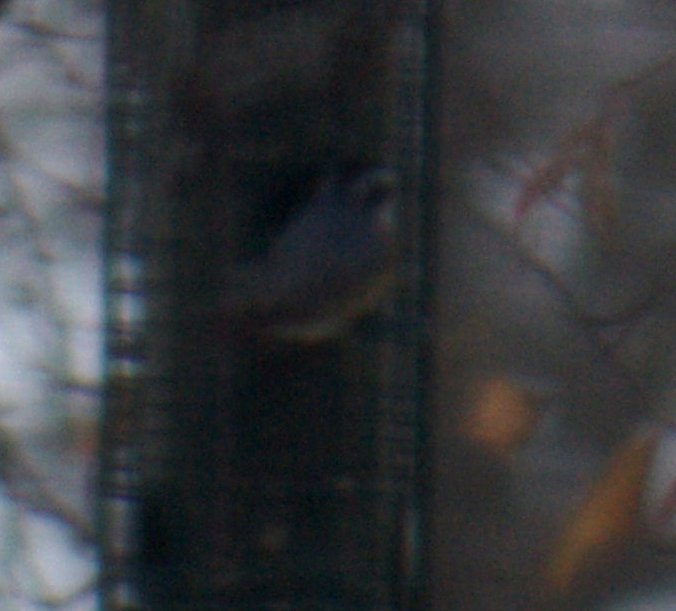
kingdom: Animalia
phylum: Chordata
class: Aves
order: Passeriformes
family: Sittidae
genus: Sitta
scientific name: Sitta canadensis
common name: Red-breasted nuthatch
